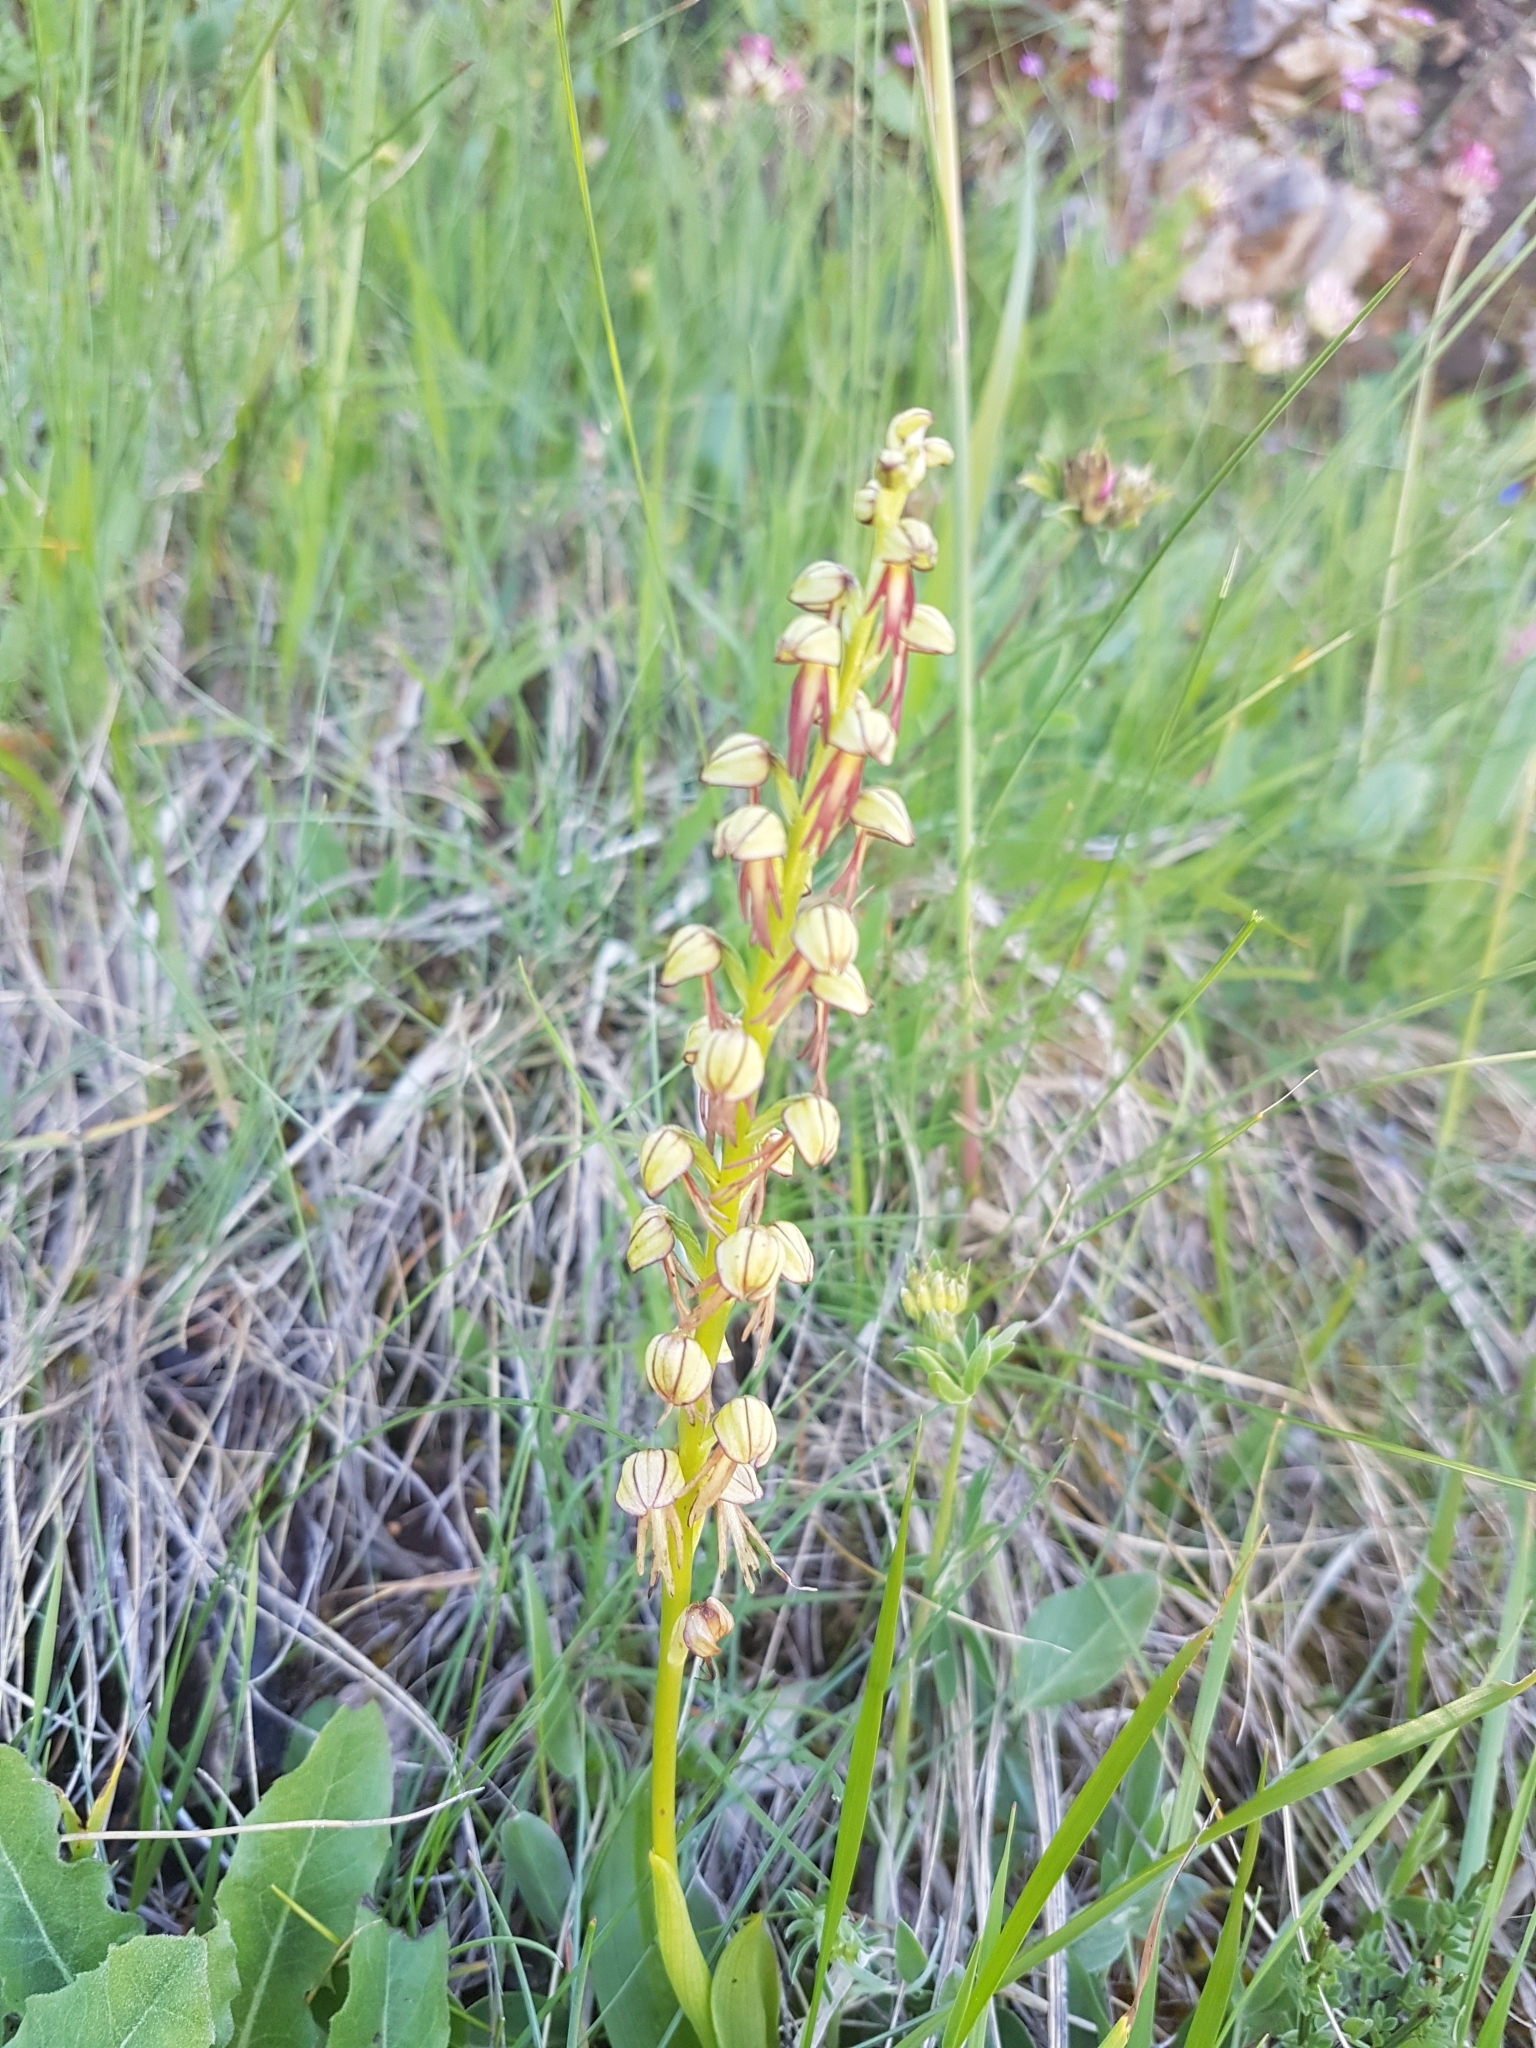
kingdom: Plantae
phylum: Tracheophyta
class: Liliopsida
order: Asparagales
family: Orchidaceae
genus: Orchis
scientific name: Orchis anthropophora
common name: Man orchid
